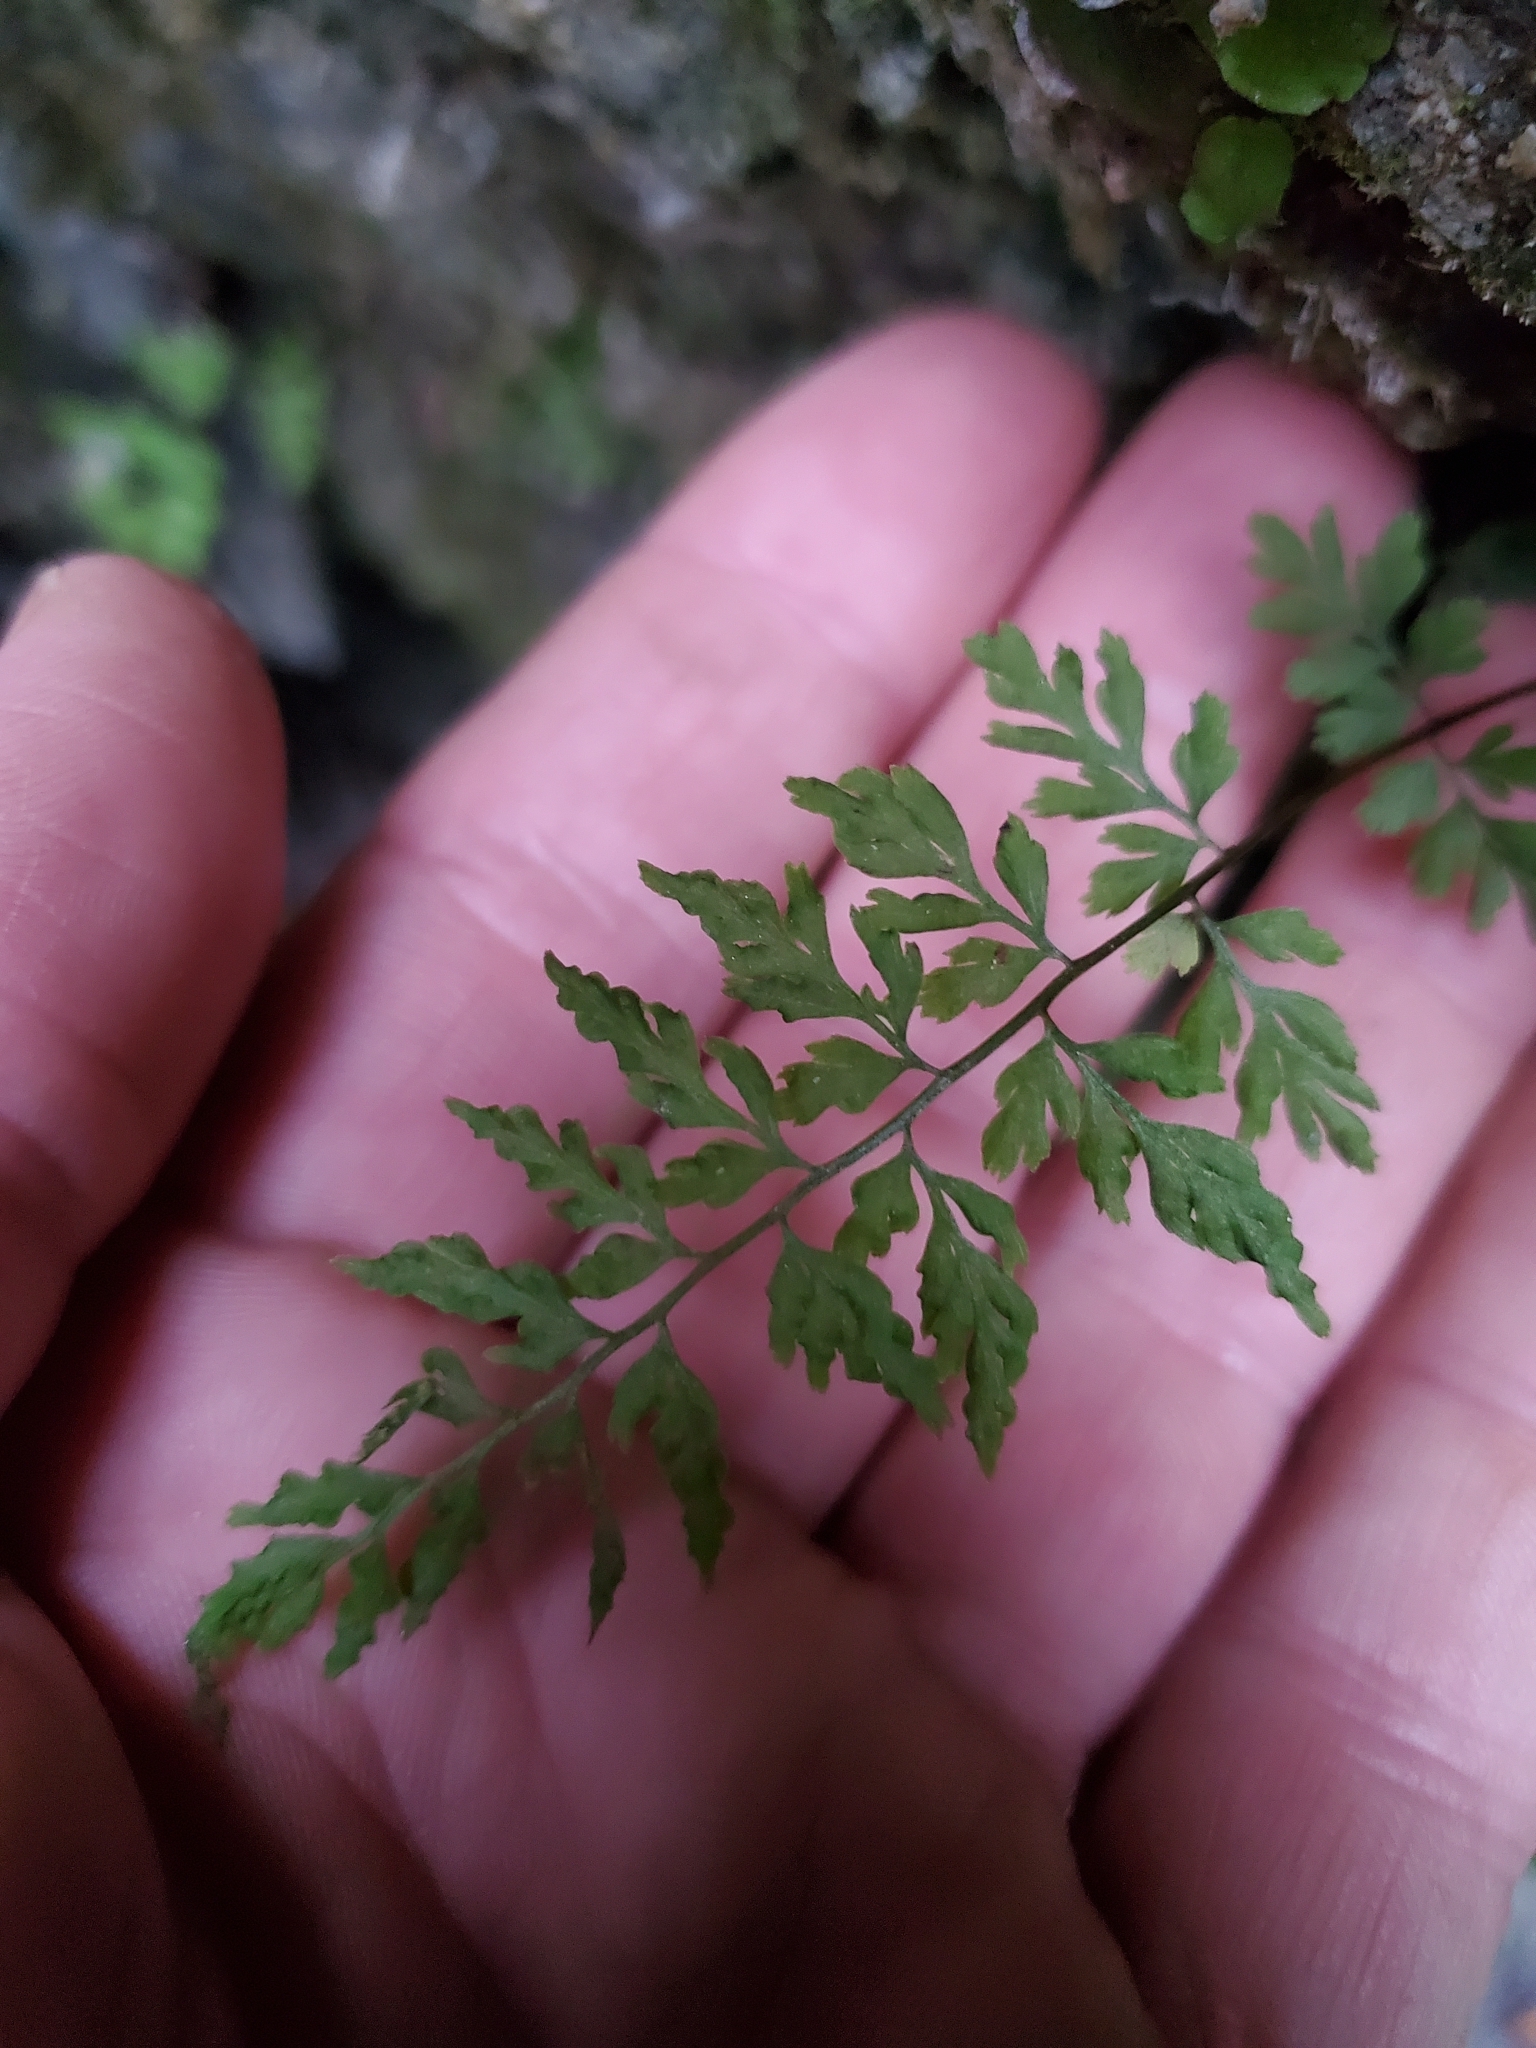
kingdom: Plantae
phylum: Tracheophyta
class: Polypodiopsida
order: Polypodiales
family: Cystopteridaceae
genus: Cystopteris
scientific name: Cystopteris fragilis
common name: Brittle bladder fern
